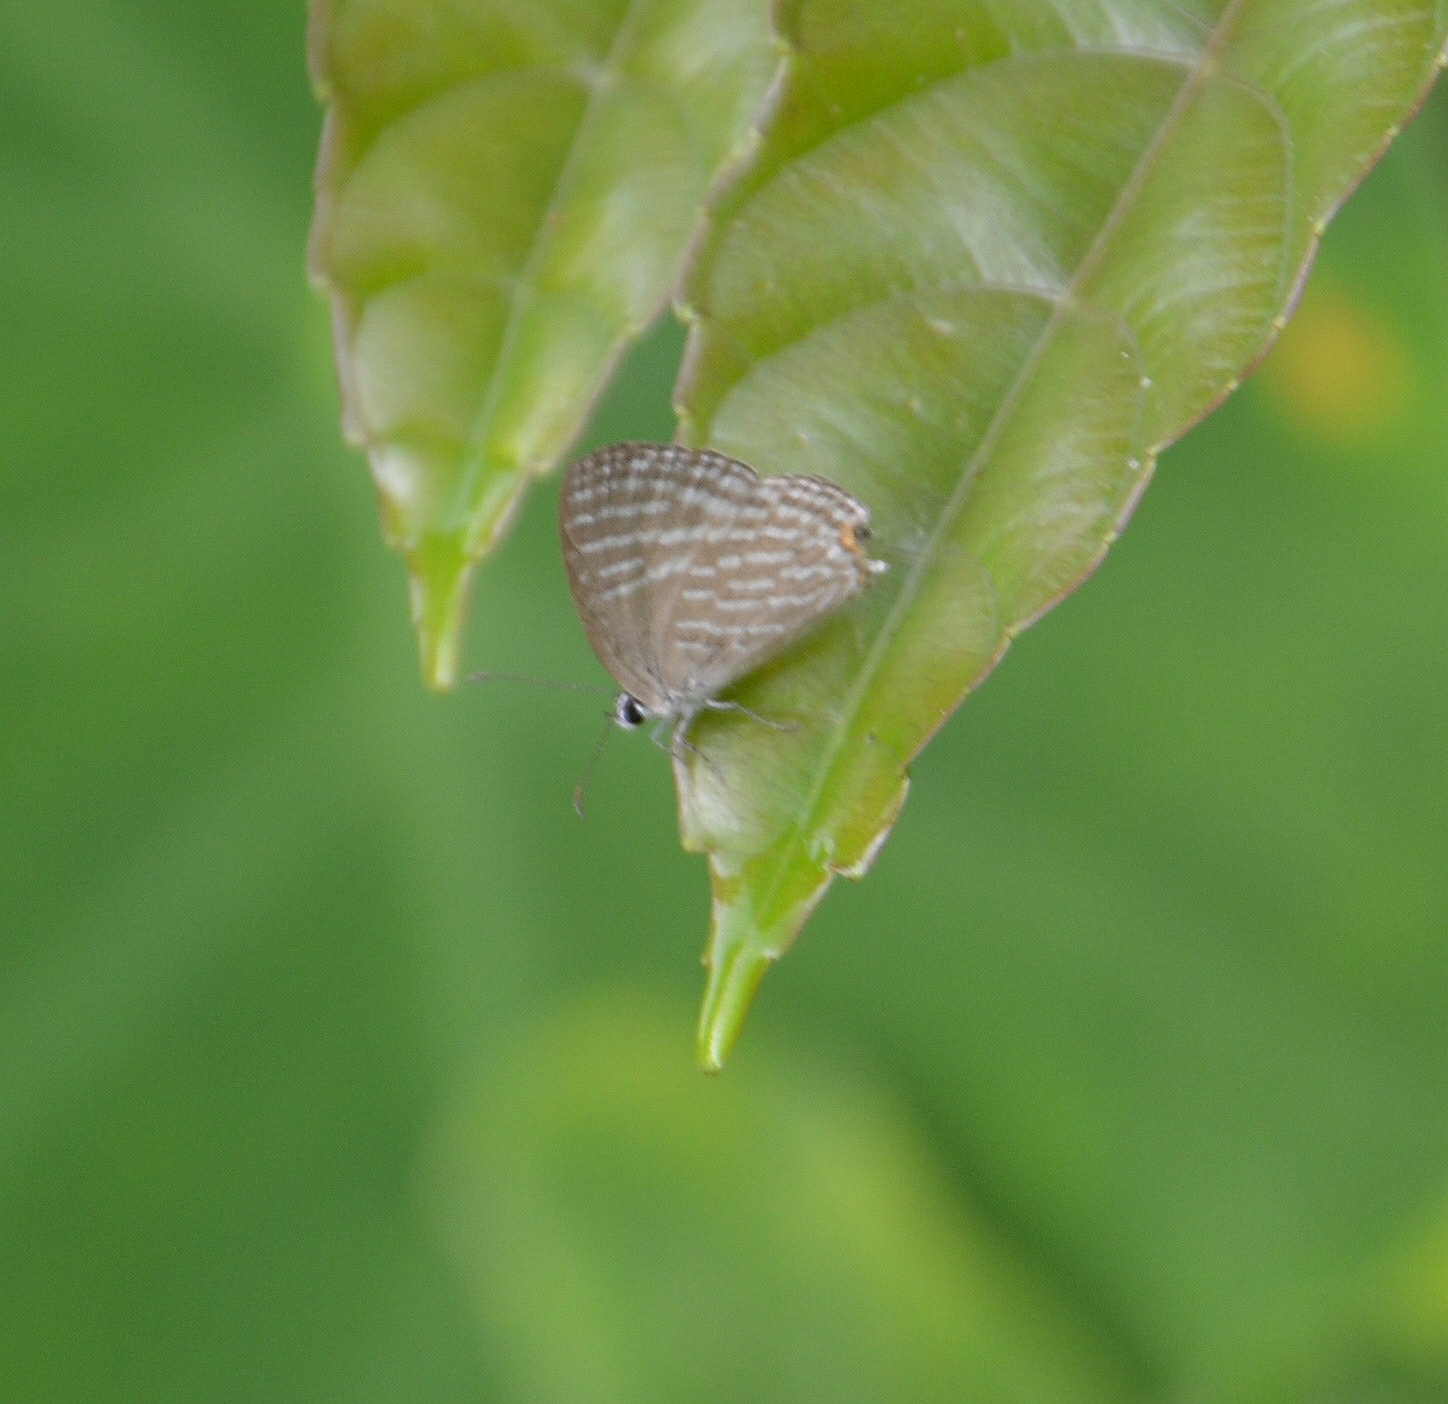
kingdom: Animalia
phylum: Arthropoda
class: Insecta
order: Lepidoptera
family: Lycaenidae
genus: Jamides
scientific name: Jamides celeno
